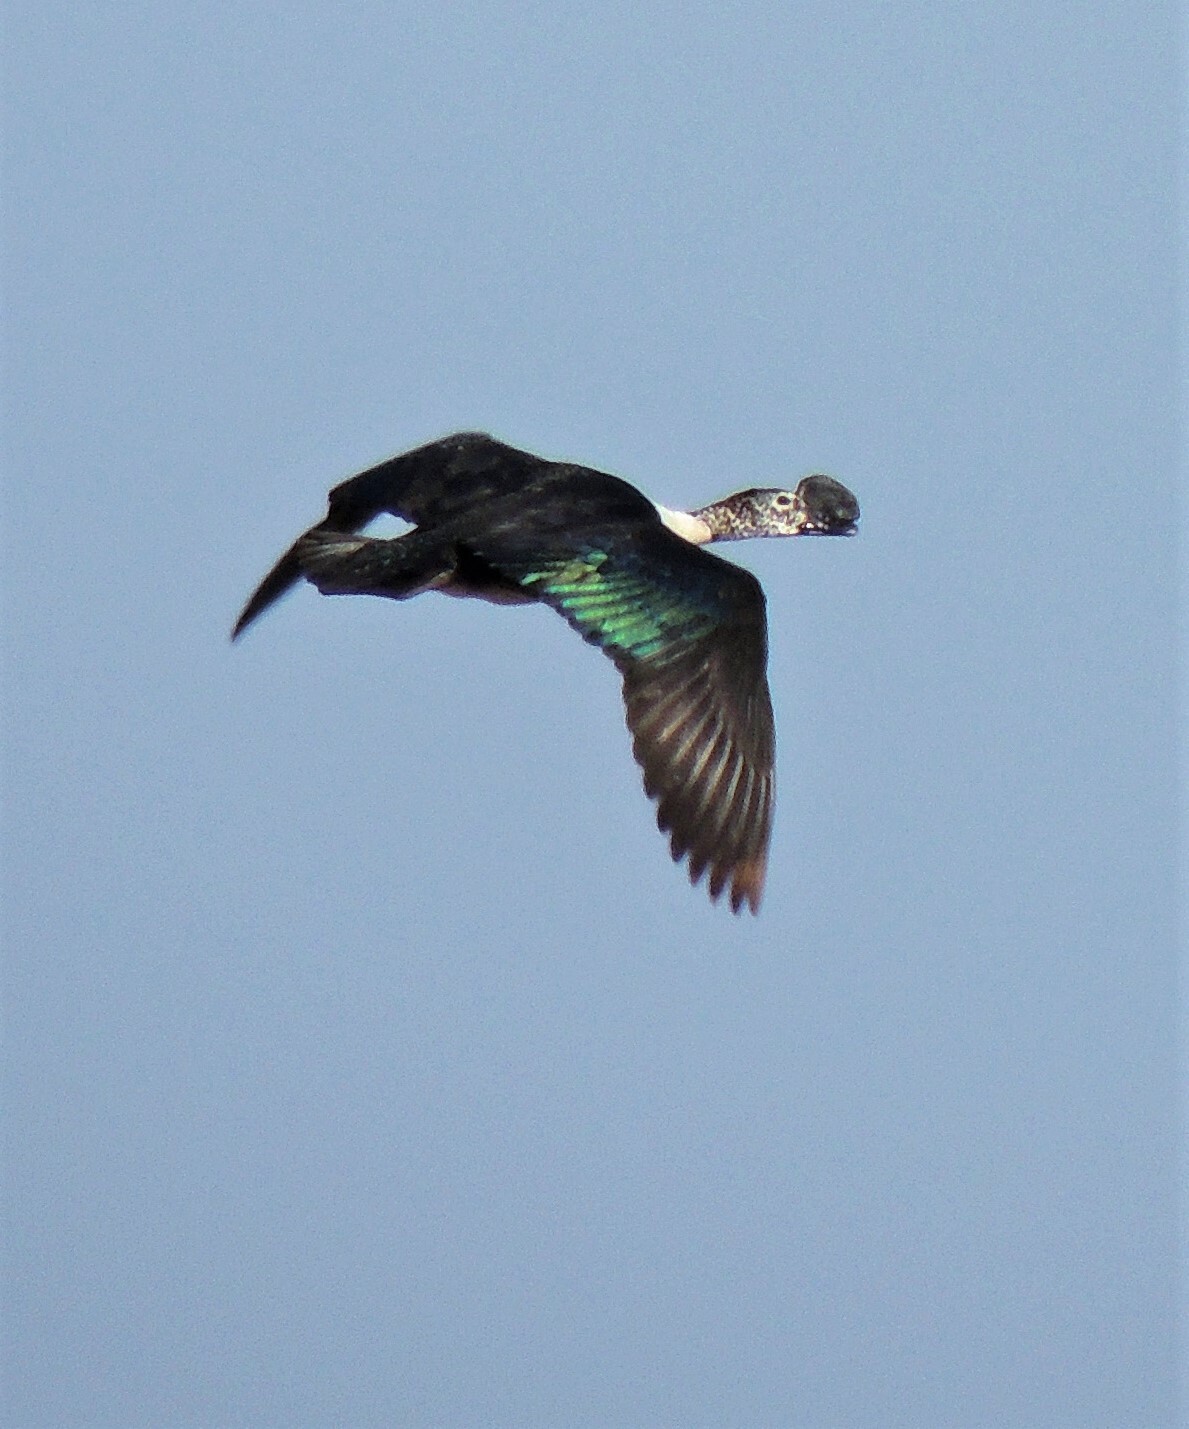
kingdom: Animalia
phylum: Chordata
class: Aves
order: Anseriformes
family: Anatidae
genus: Sarkidiornis
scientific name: Sarkidiornis sylvicola
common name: Comb duck
